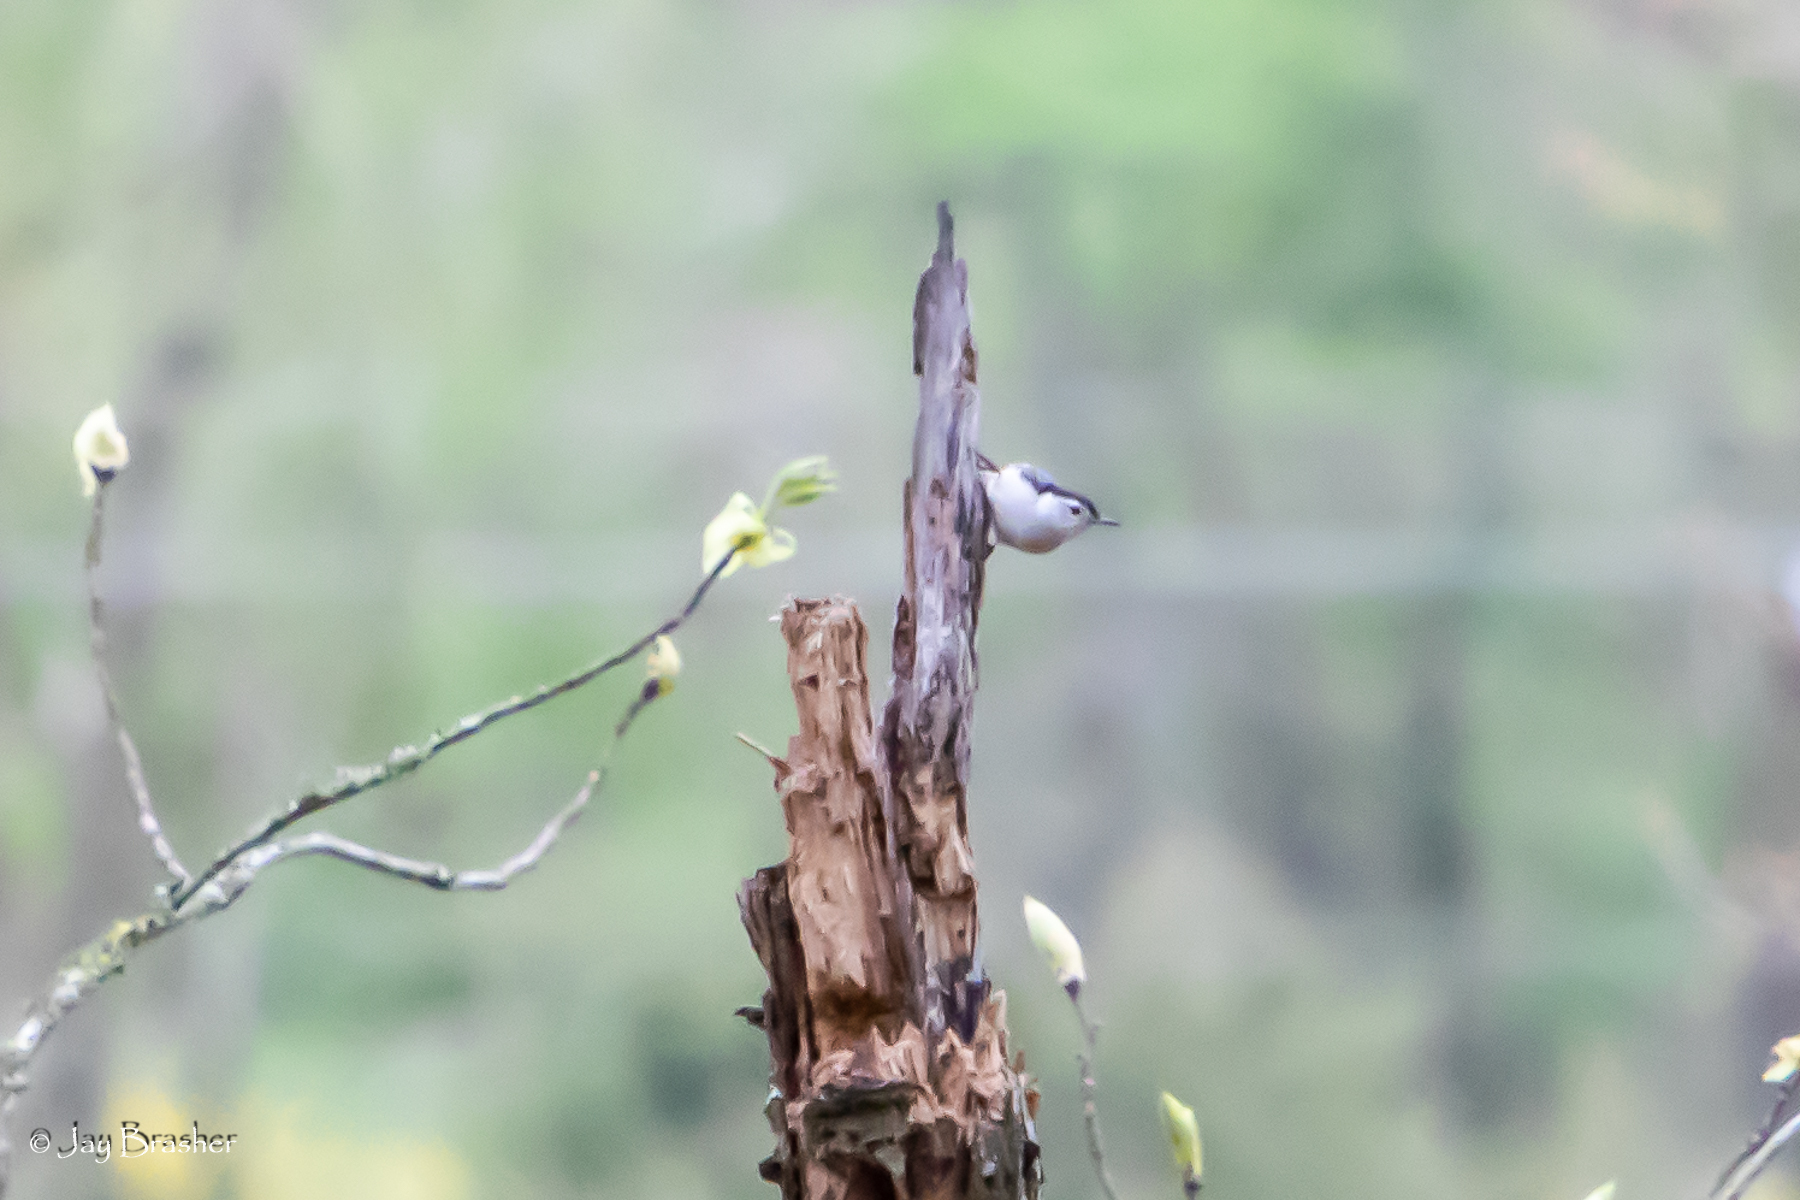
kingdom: Animalia
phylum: Chordata
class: Aves
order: Passeriformes
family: Sittidae
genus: Sitta
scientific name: Sitta carolinensis
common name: White-breasted nuthatch
